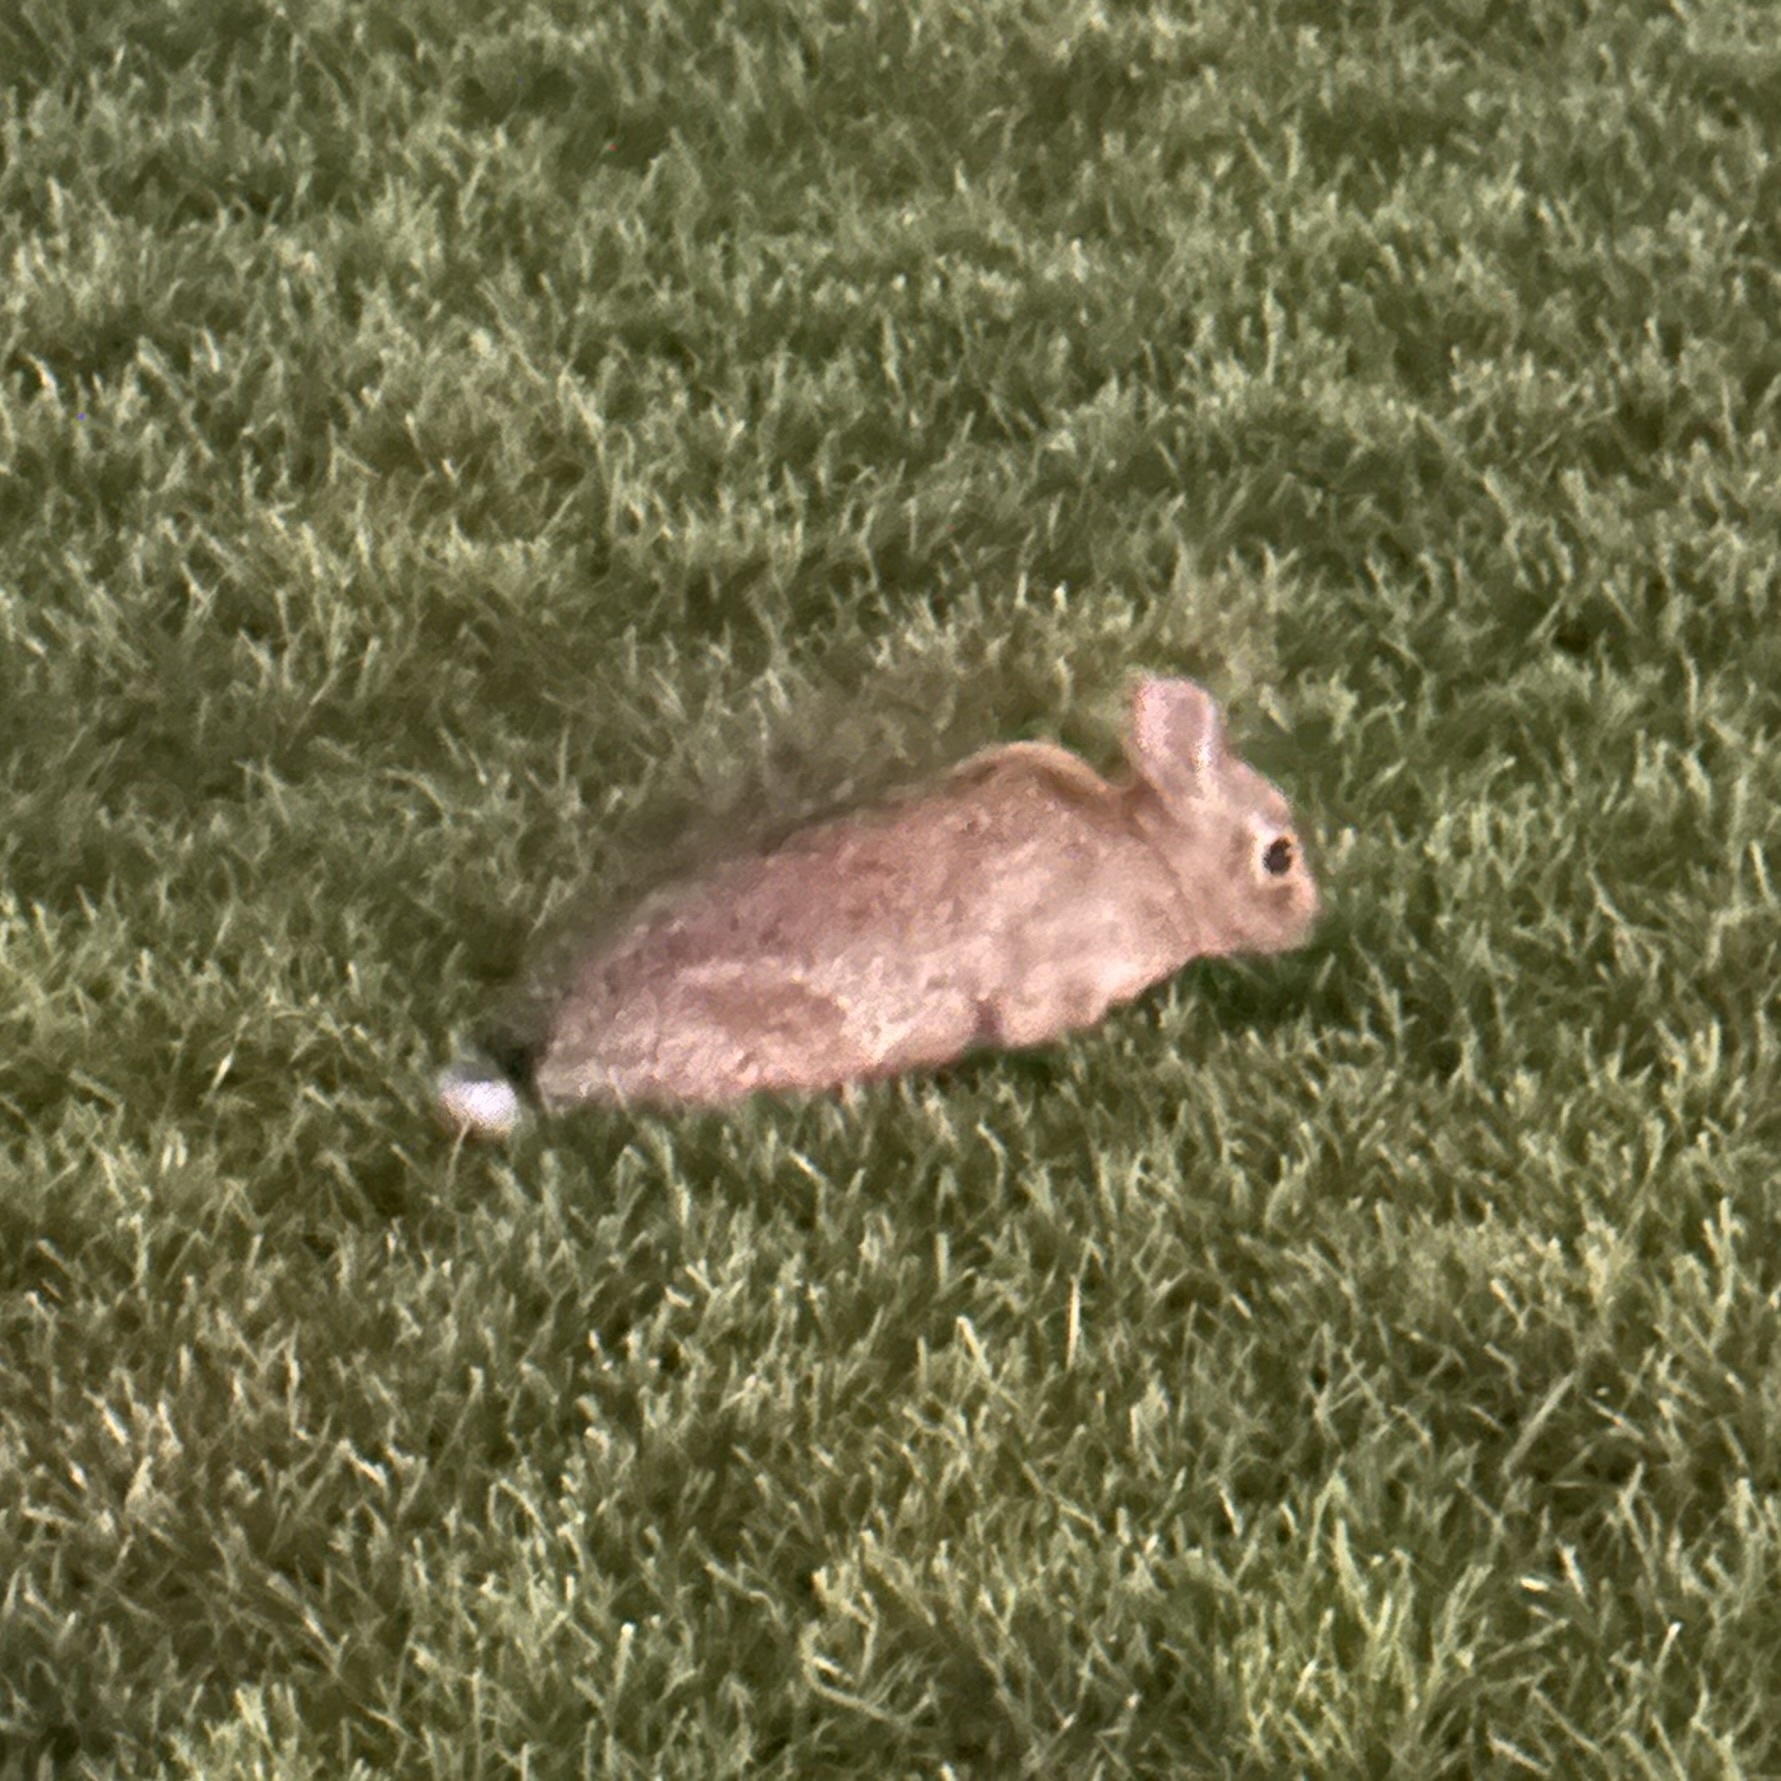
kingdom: Animalia
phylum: Chordata
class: Mammalia
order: Lagomorpha
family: Leporidae
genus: Sylvilagus
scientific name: Sylvilagus floridanus
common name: Eastern cottontail
